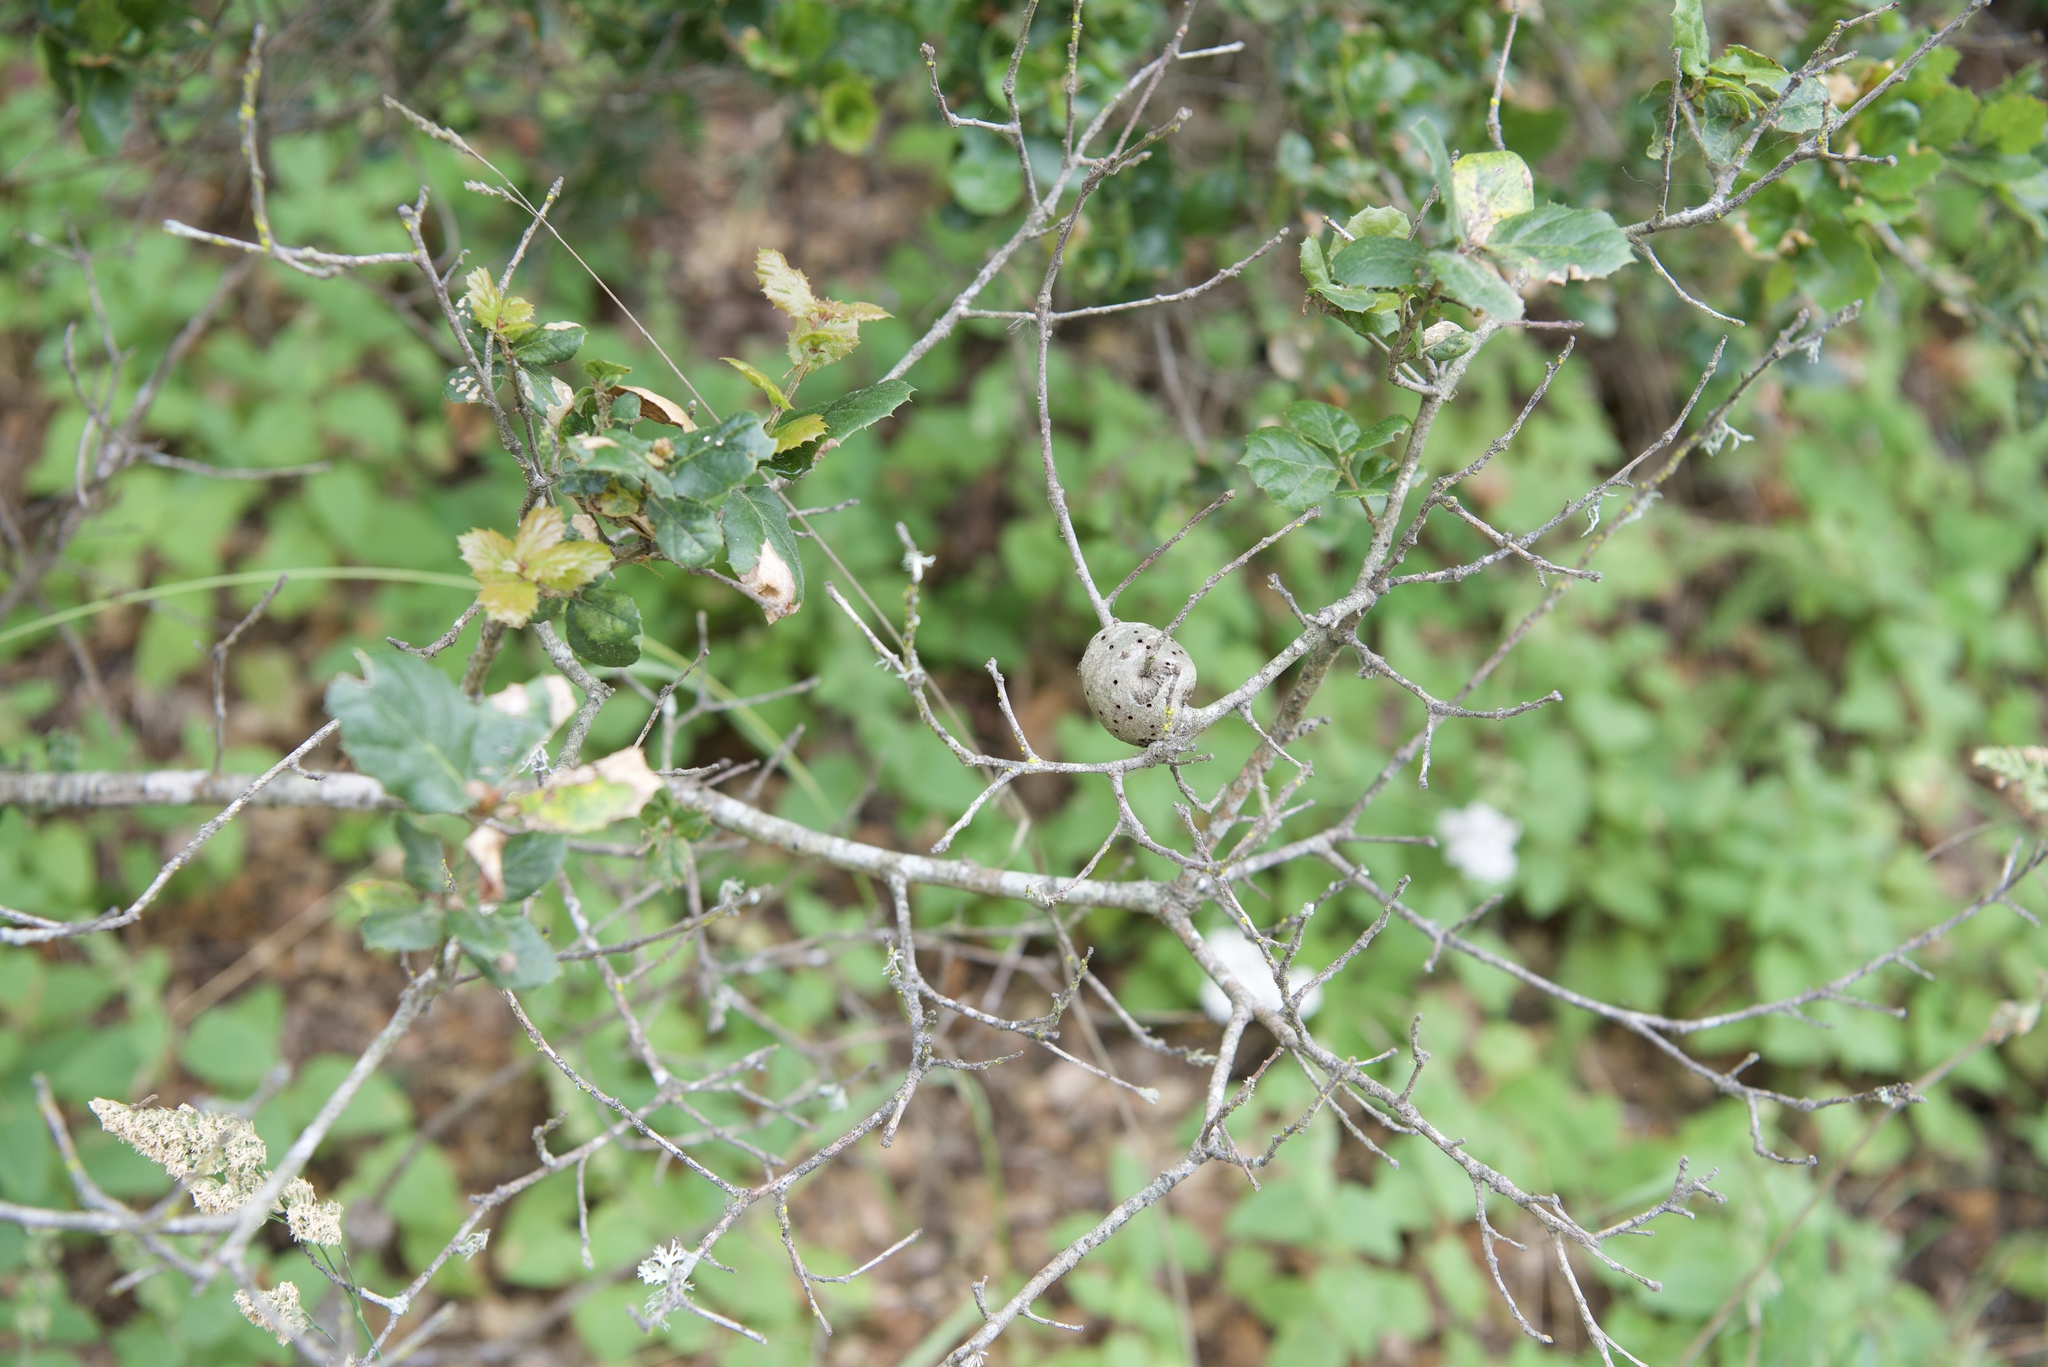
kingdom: Animalia
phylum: Arthropoda
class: Insecta
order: Hymenoptera
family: Cynipidae
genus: Callirhytis
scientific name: Callirhytis
